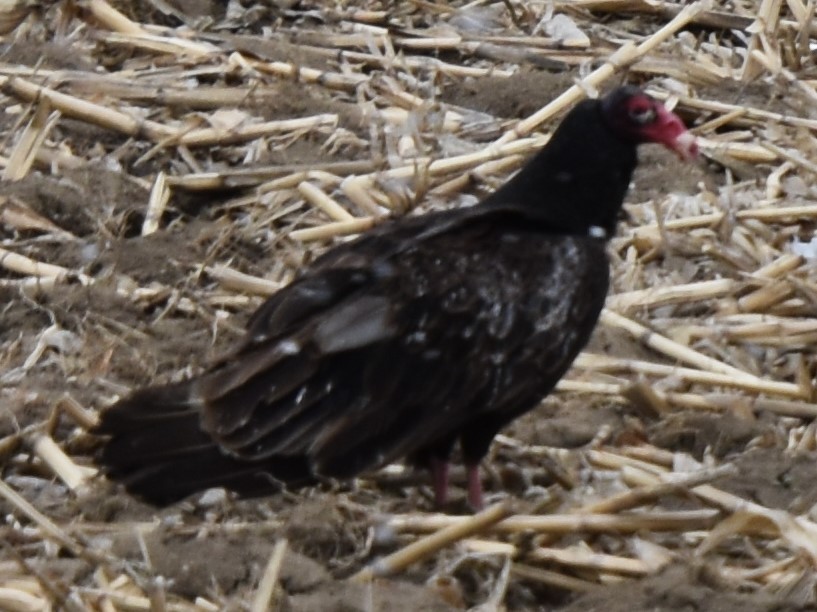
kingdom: Animalia
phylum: Chordata
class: Aves
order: Accipitriformes
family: Cathartidae
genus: Cathartes
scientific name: Cathartes aura
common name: Turkey vulture
